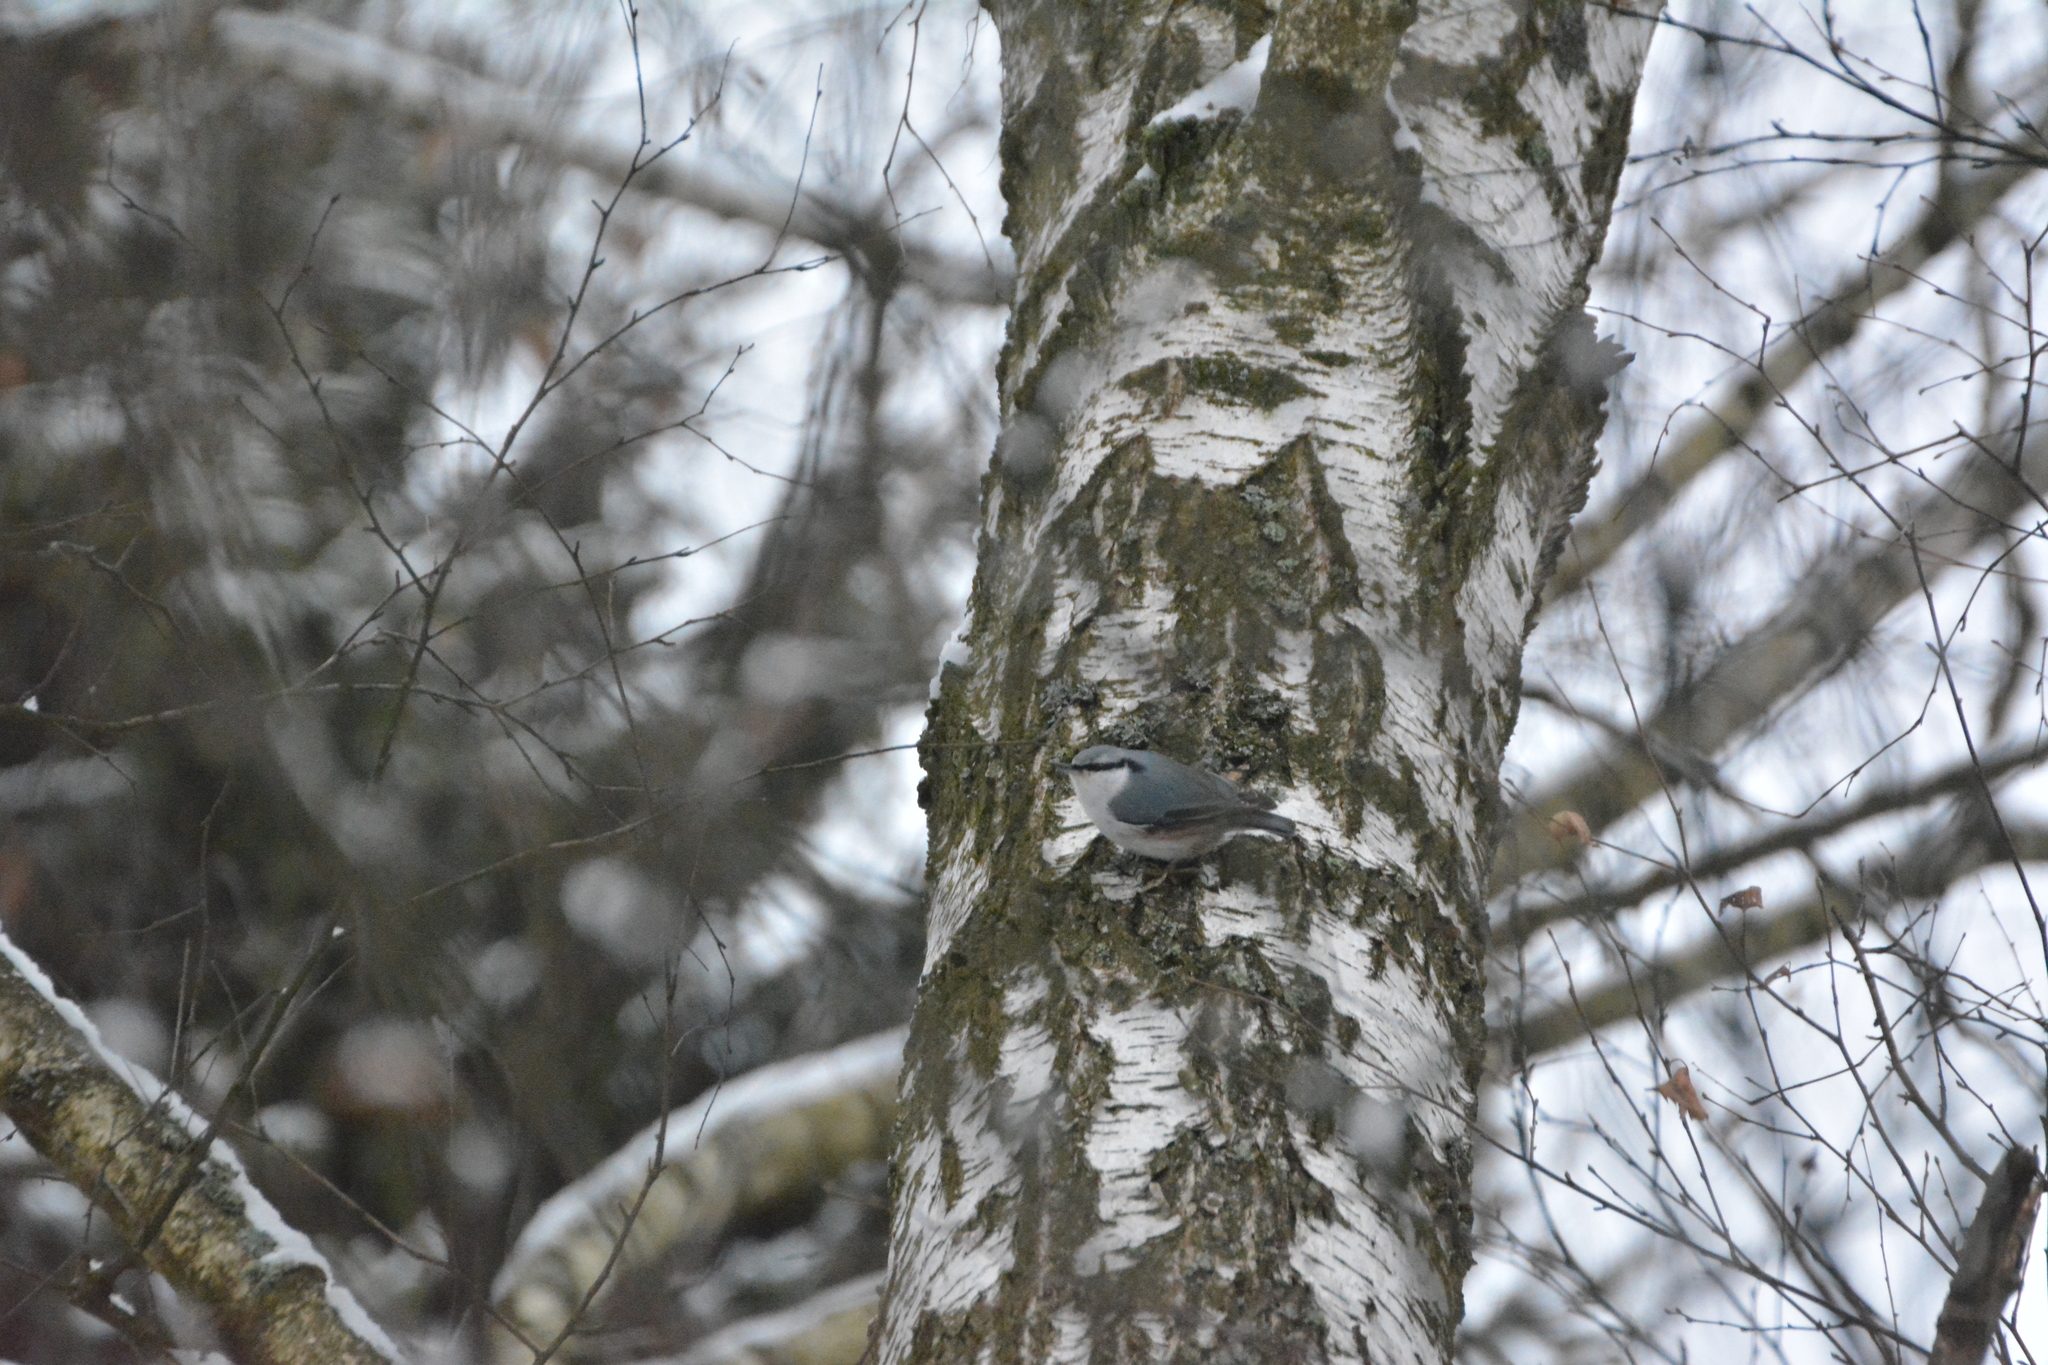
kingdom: Animalia
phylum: Chordata
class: Aves
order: Passeriformes
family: Sittidae
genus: Sitta
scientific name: Sitta europaea
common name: Eurasian nuthatch
